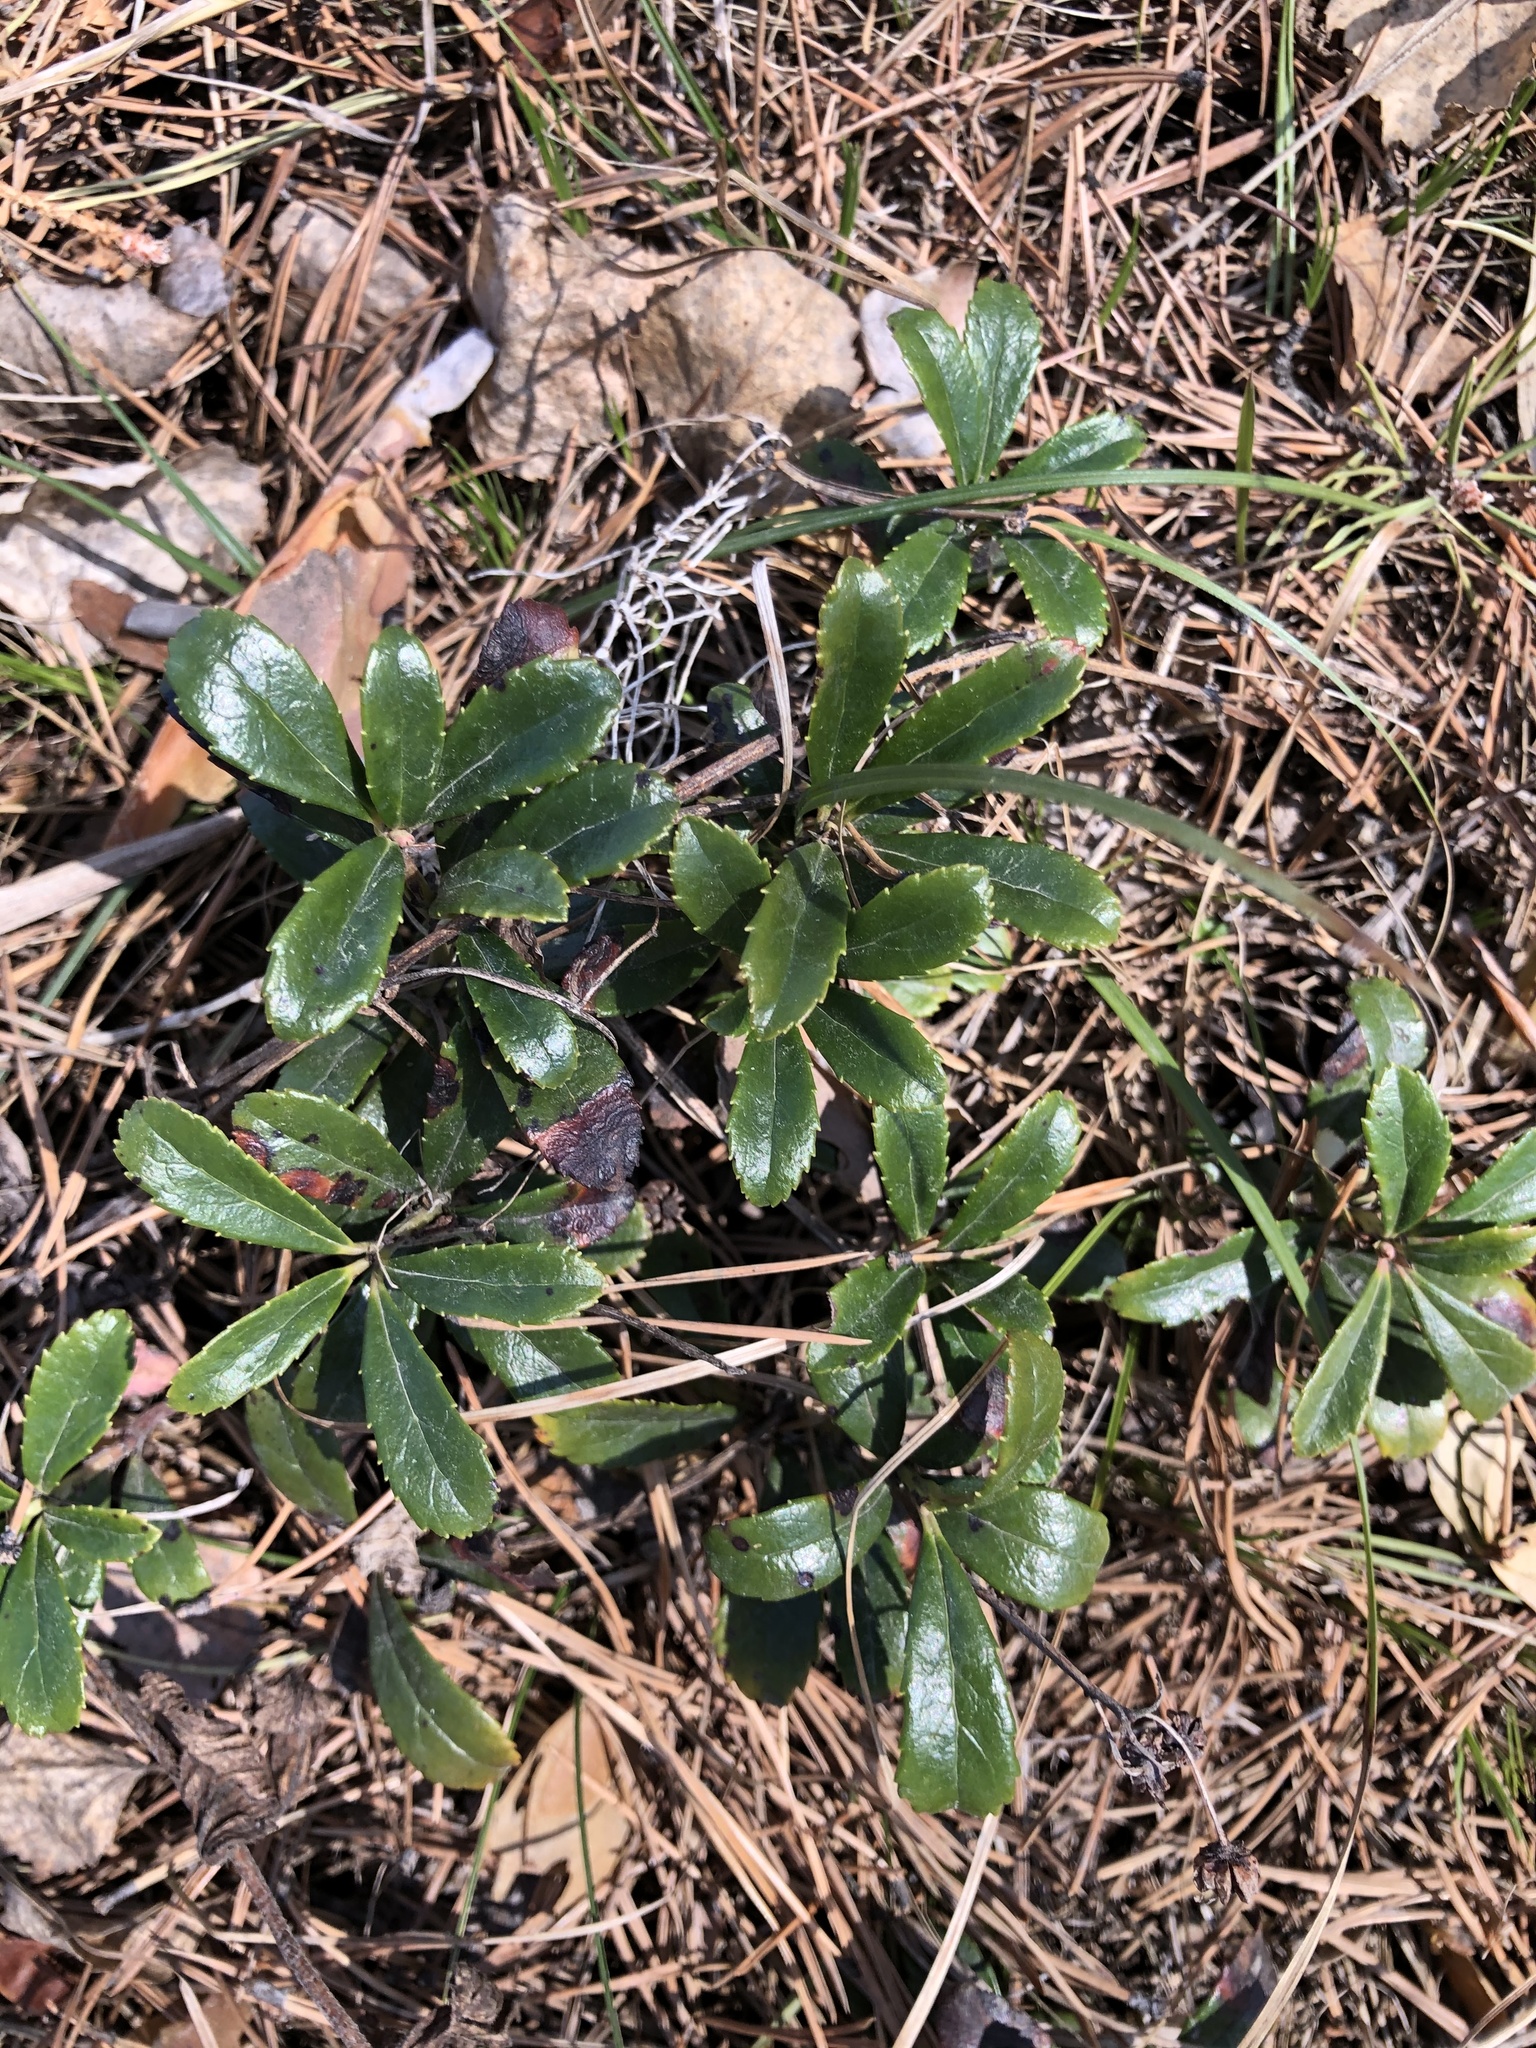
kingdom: Plantae
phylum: Tracheophyta
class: Magnoliopsida
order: Ericales
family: Ericaceae
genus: Chimaphila
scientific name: Chimaphila umbellata
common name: Pipsissewa
